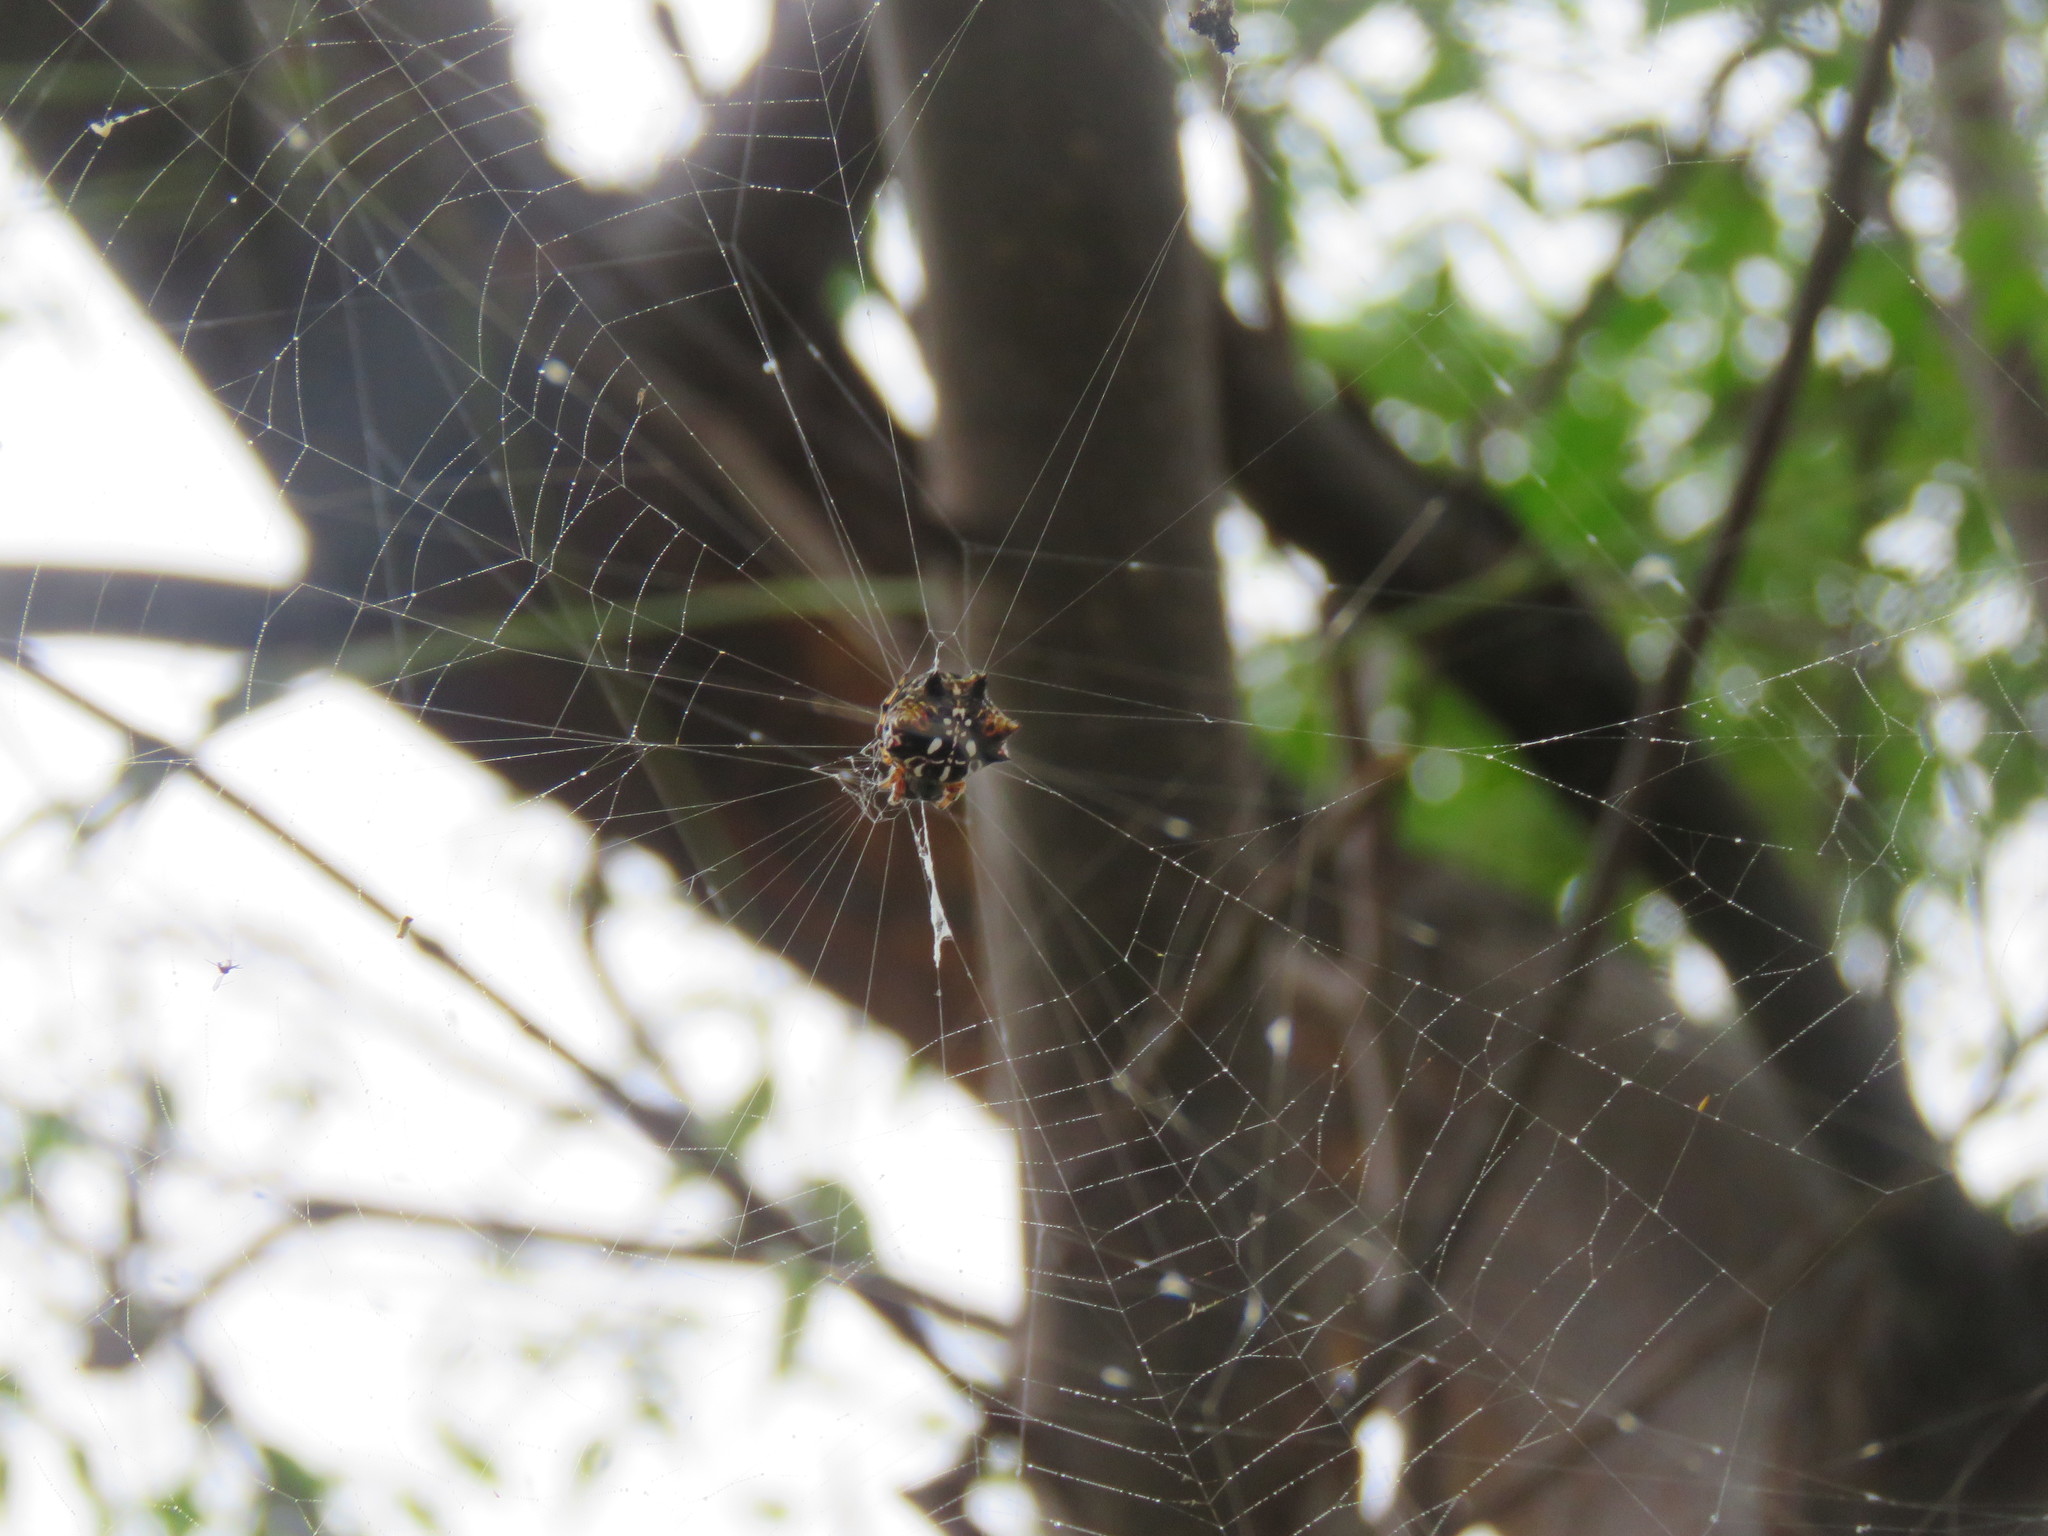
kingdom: Animalia
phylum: Arthropoda
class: Arachnida
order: Araneae
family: Araneidae
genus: Thelacantha
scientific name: Thelacantha brevispina
